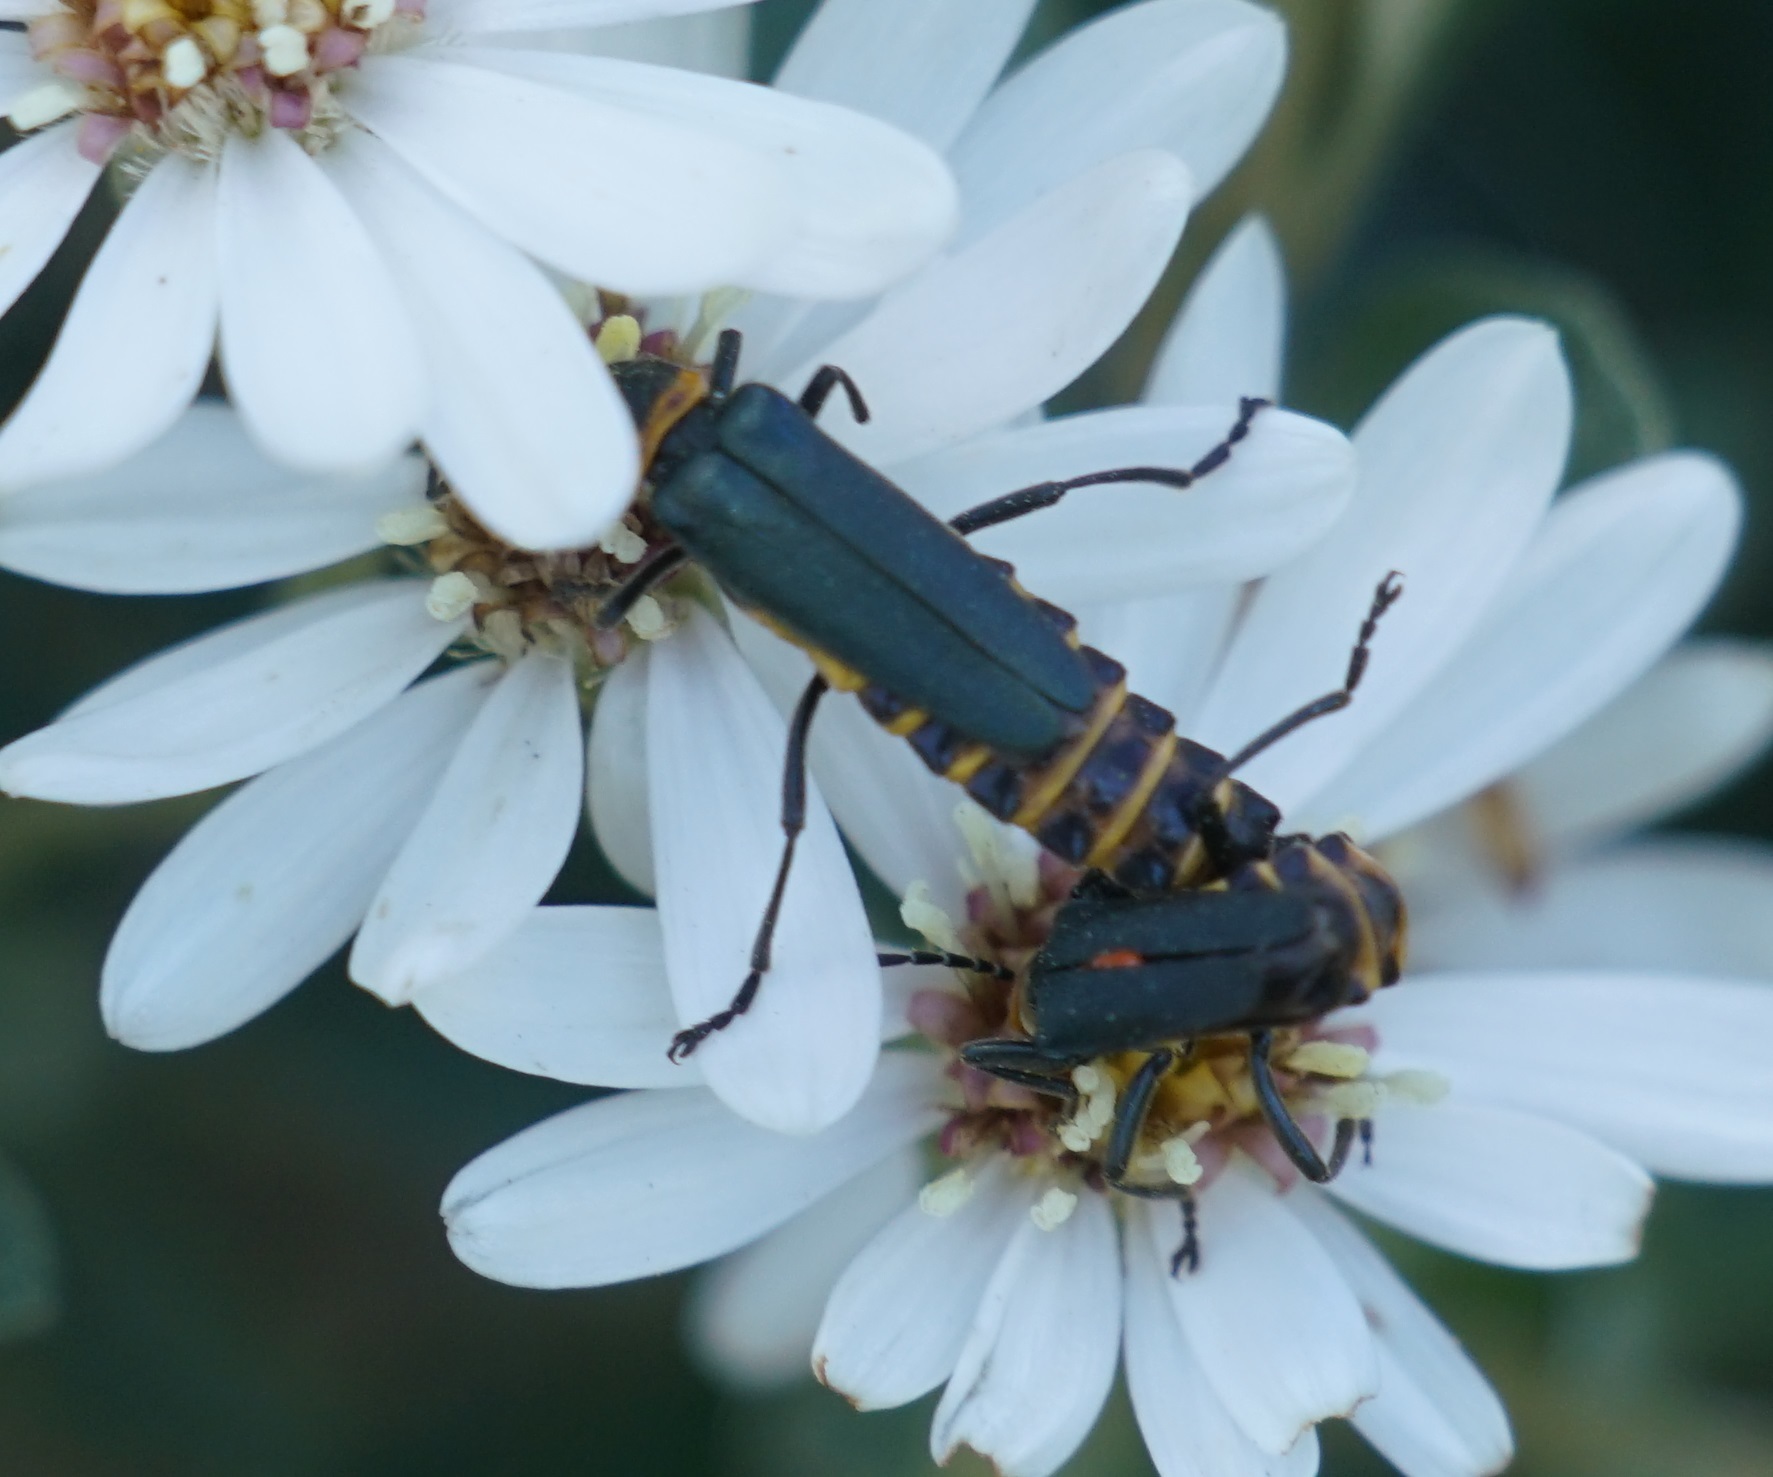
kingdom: Animalia
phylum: Arthropoda
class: Insecta
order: Coleoptera
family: Cantharidae
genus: Chauliognathus
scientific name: Chauliognathus
